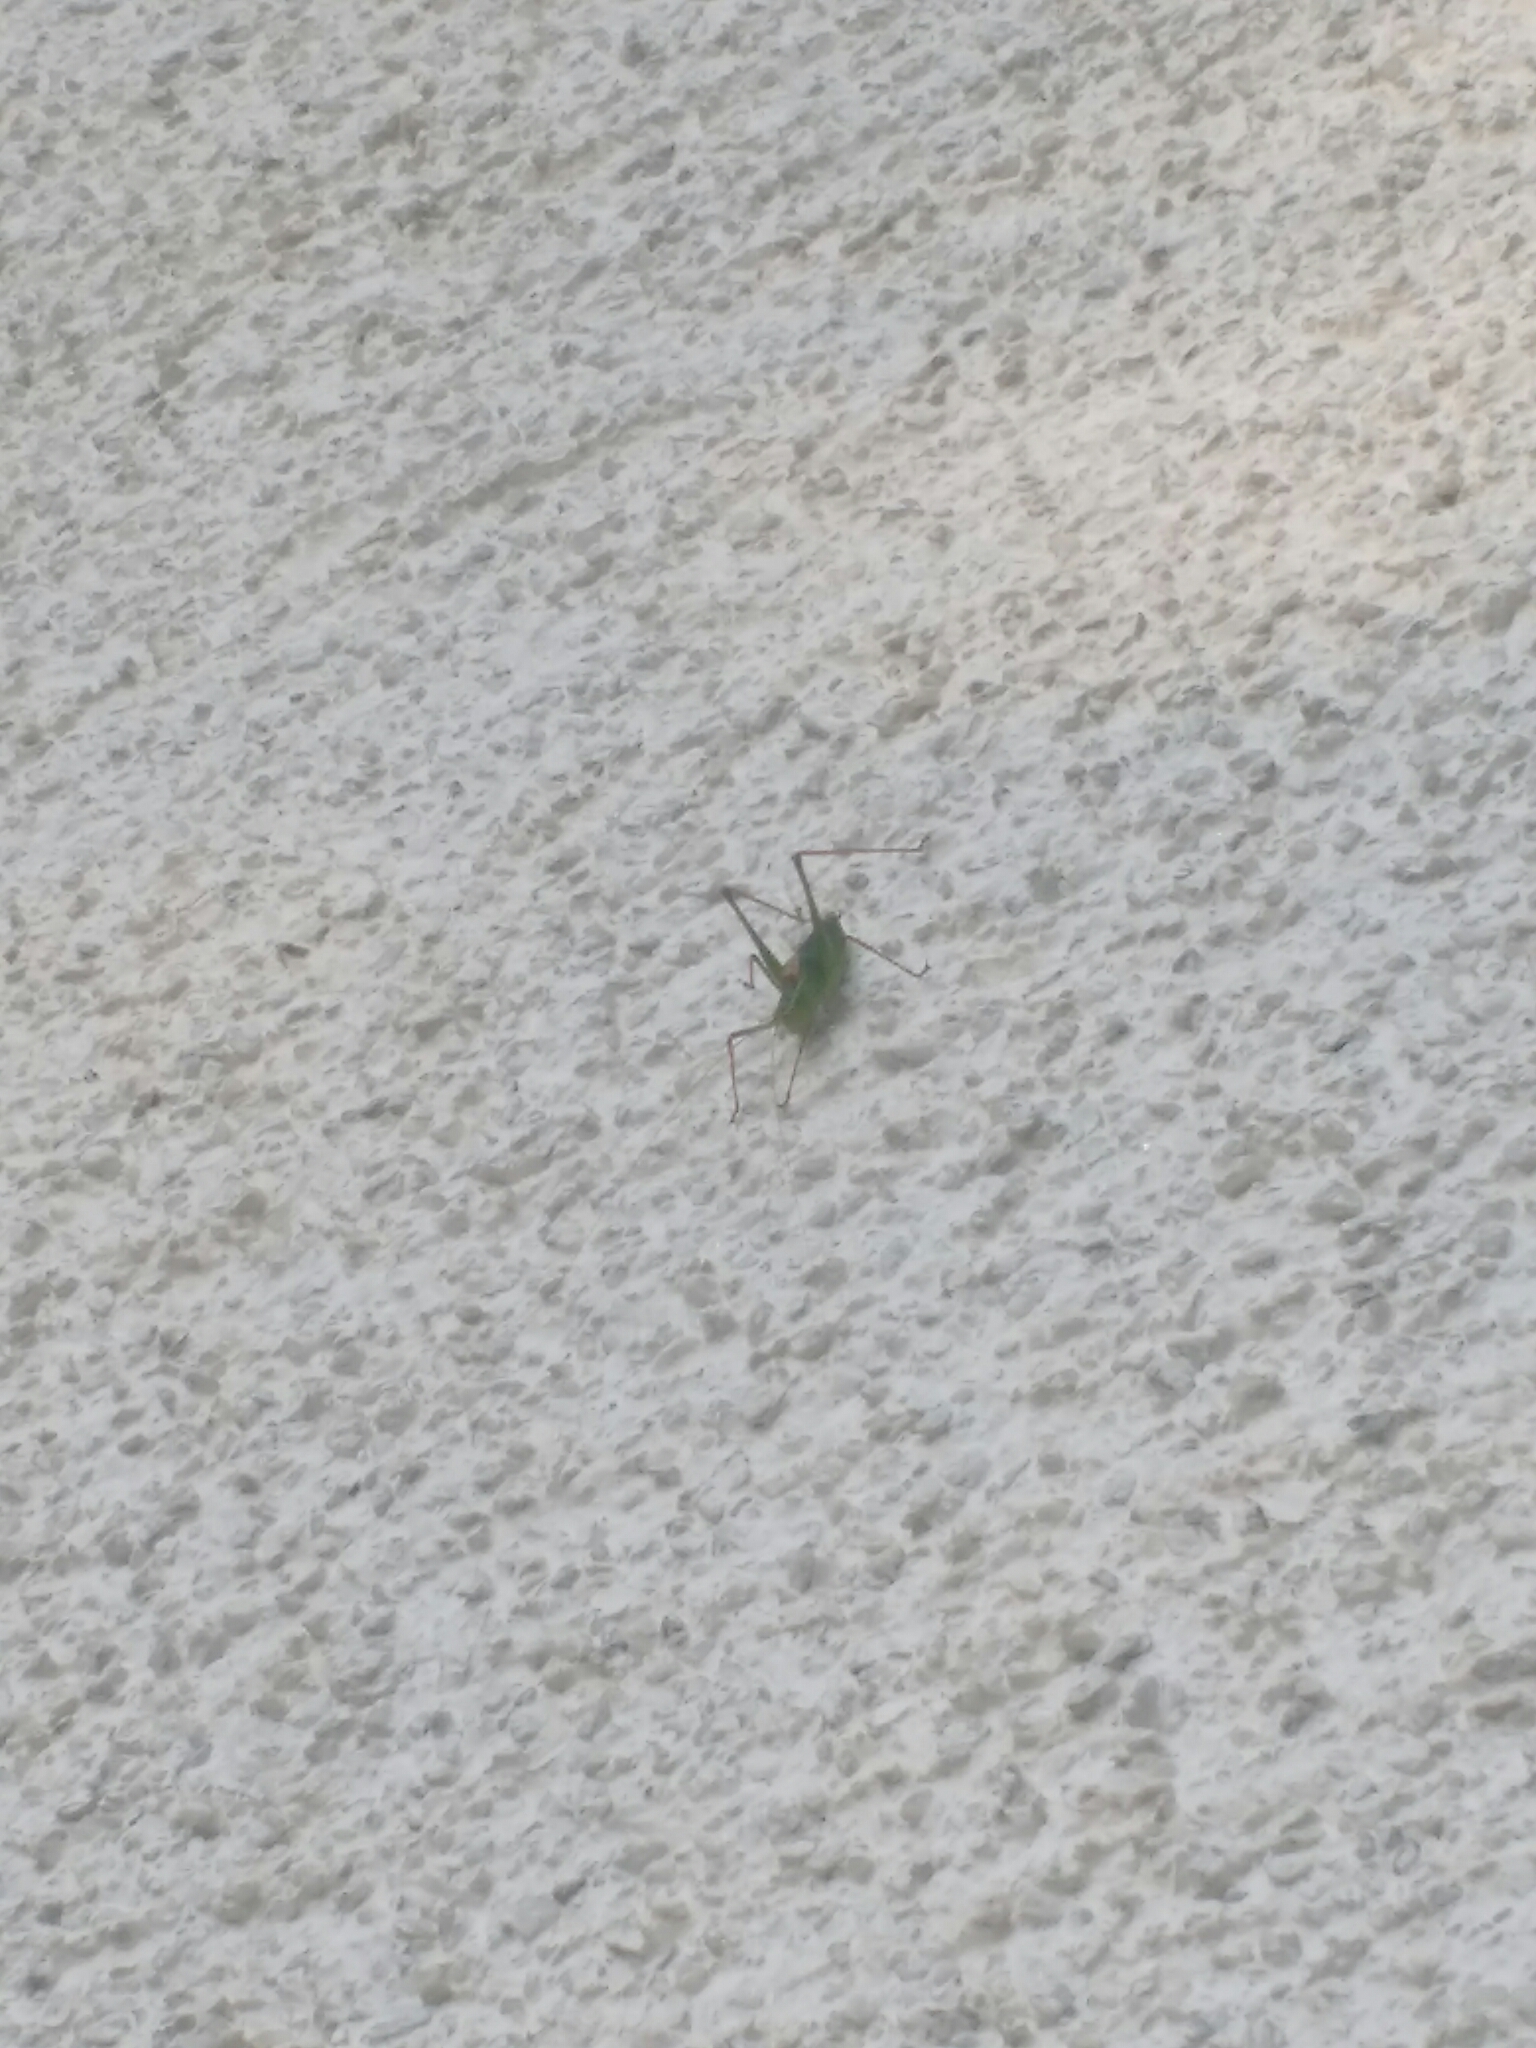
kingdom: Animalia
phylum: Arthropoda
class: Insecta
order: Orthoptera
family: Tettigoniidae
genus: Leptophyes
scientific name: Leptophyes punctatissima
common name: Speckled bush-cricket
